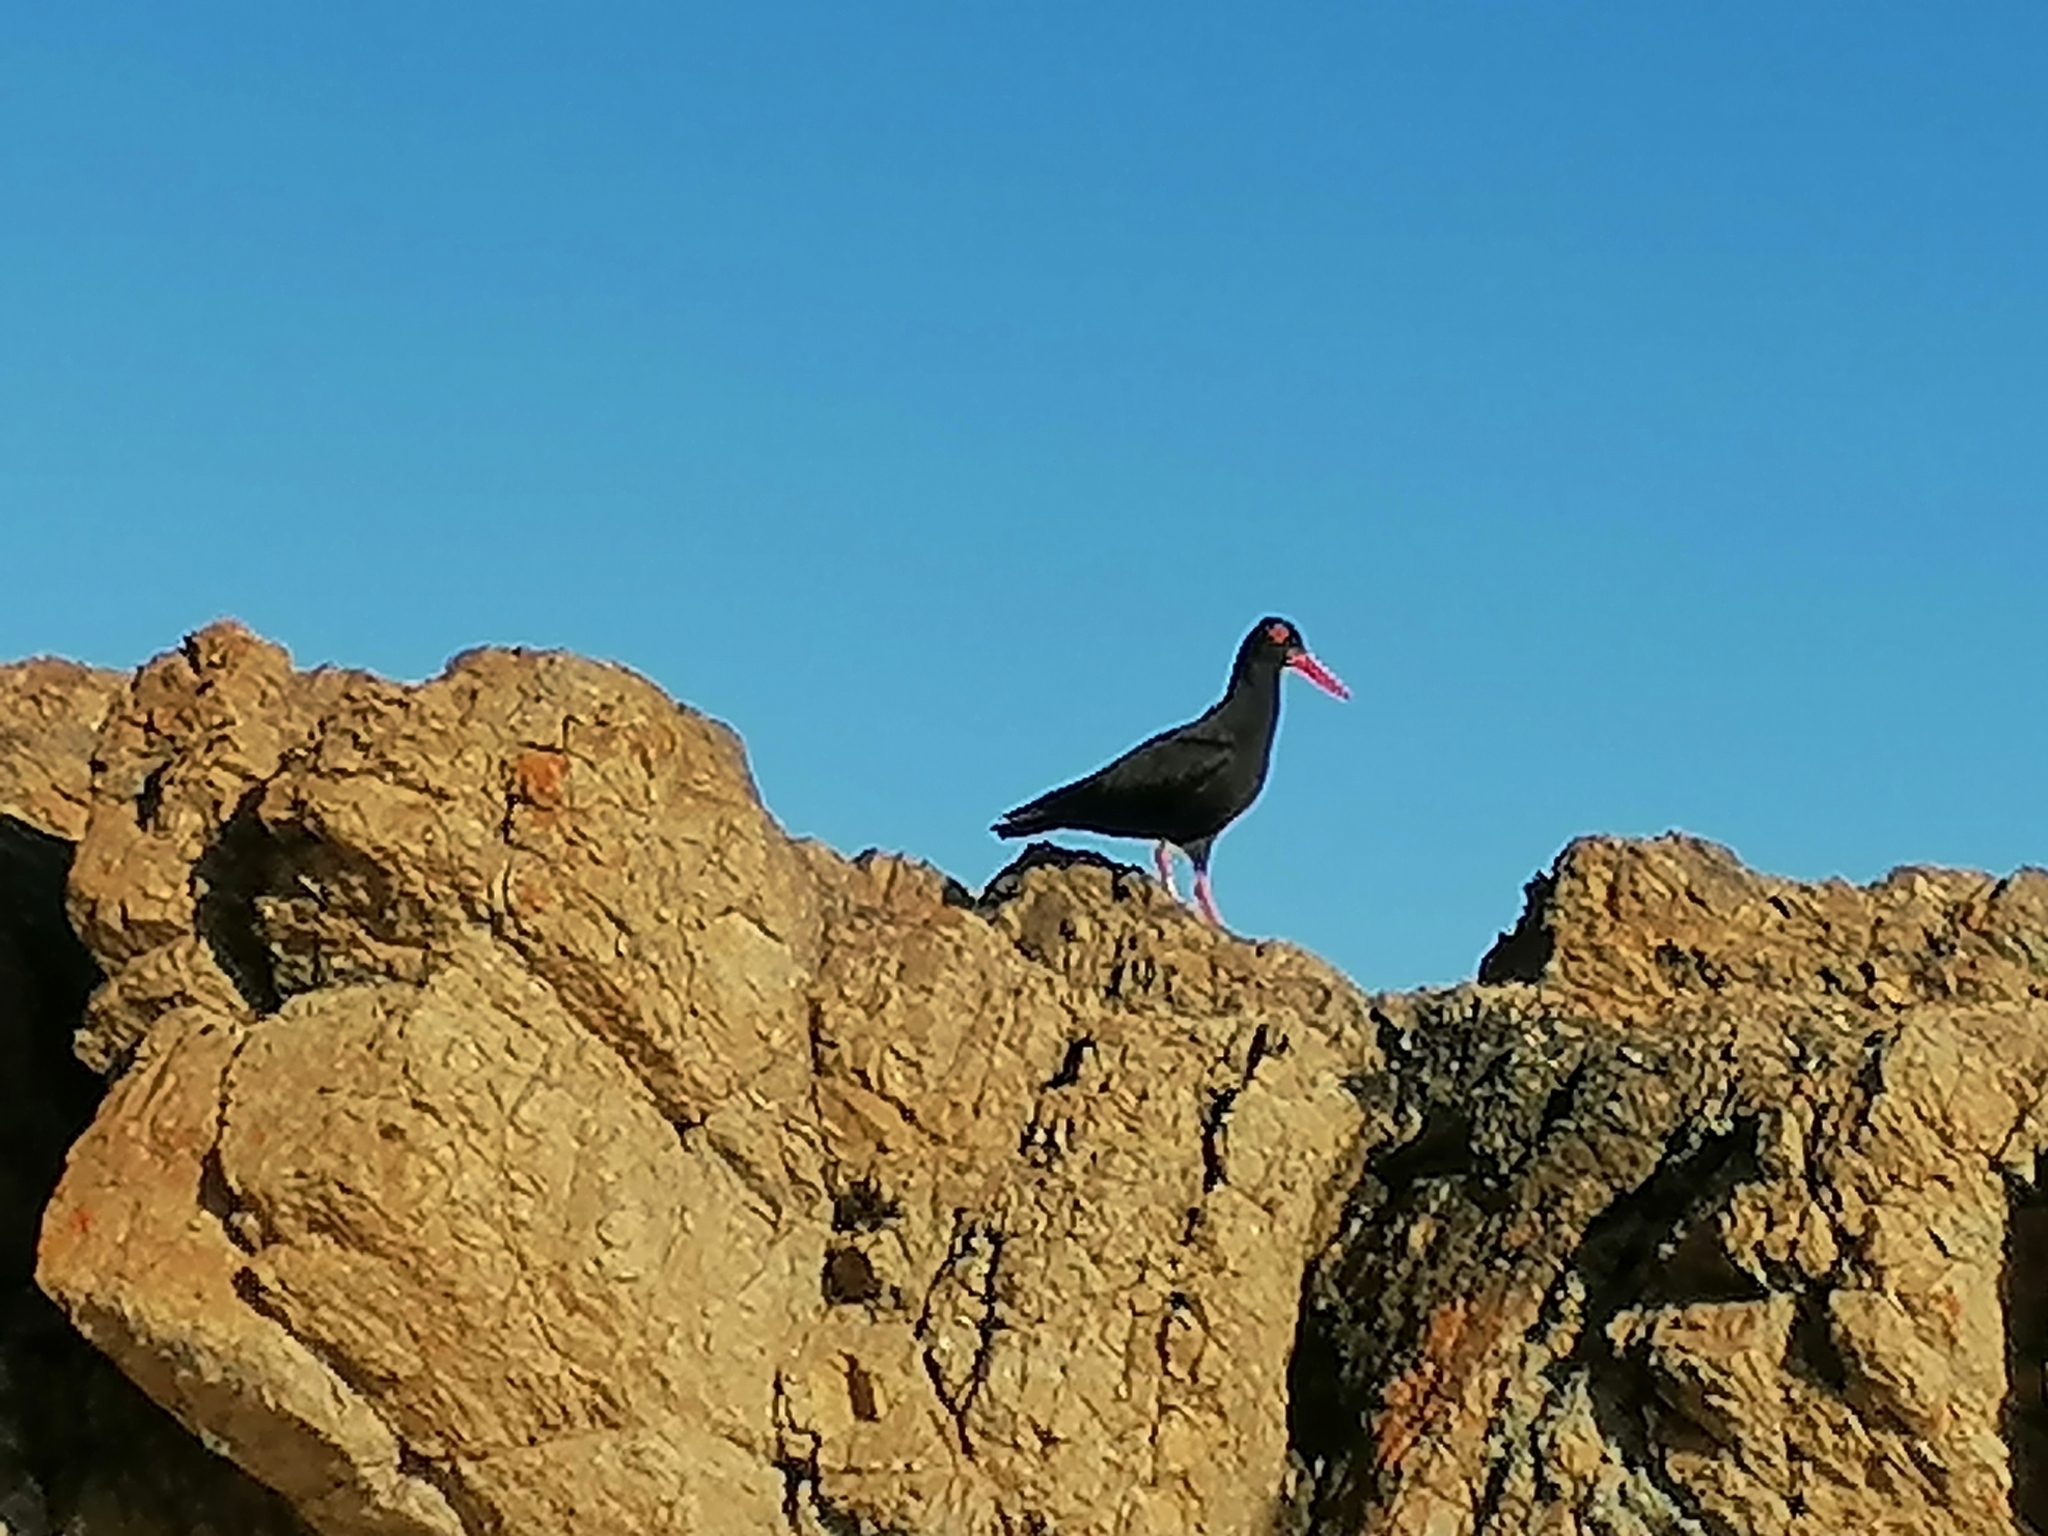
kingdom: Animalia
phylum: Chordata
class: Aves
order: Charadriiformes
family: Haematopodidae
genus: Haematopus
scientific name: Haematopus moquini
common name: African oystercatcher
